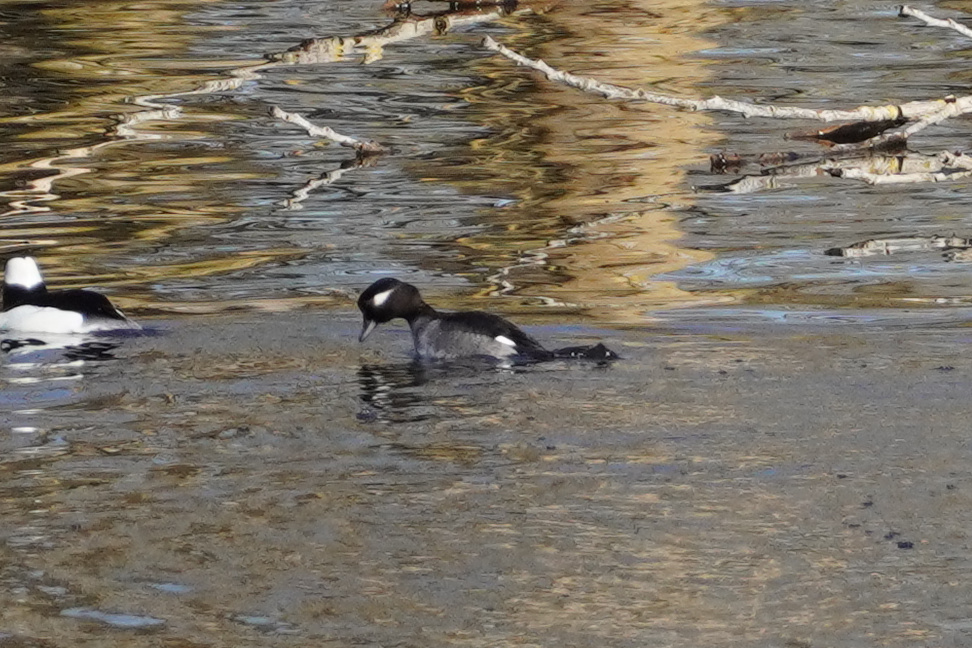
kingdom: Animalia
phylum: Chordata
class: Aves
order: Anseriformes
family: Anatidae
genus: Bucephala
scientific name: Bucephala albeola
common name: Bufflehead
